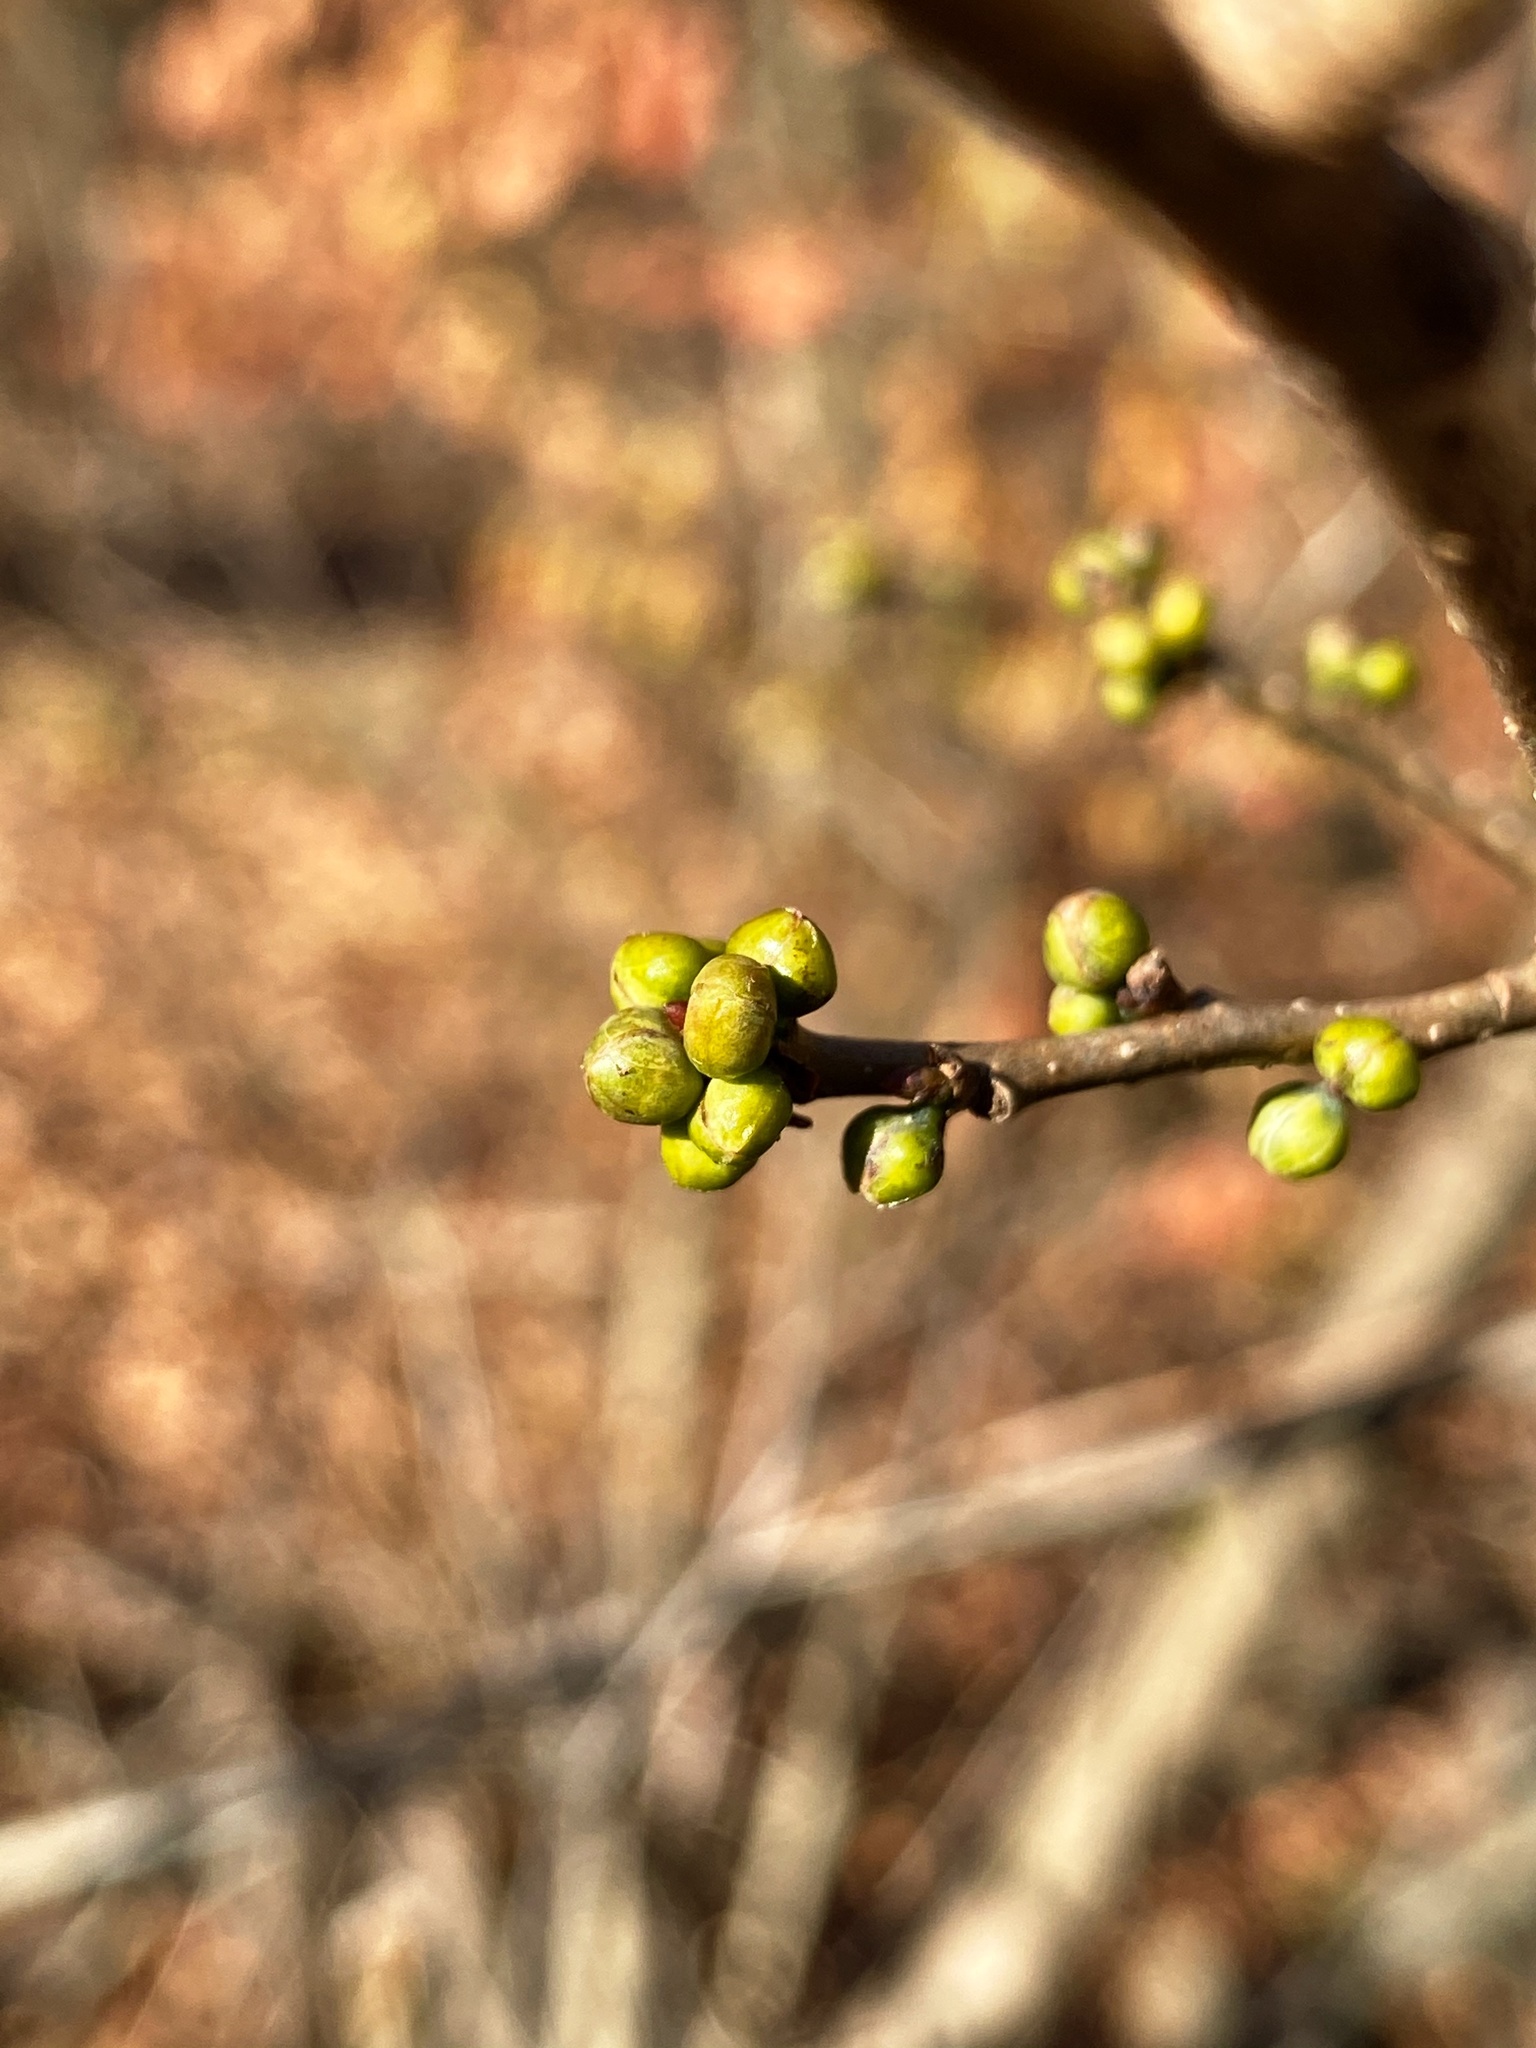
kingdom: Plantae
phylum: Tracheophyta
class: Magnoliopsida
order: Laurales
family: Lauraceae
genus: Lindera
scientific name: Lindera benzoin
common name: Spicebush
